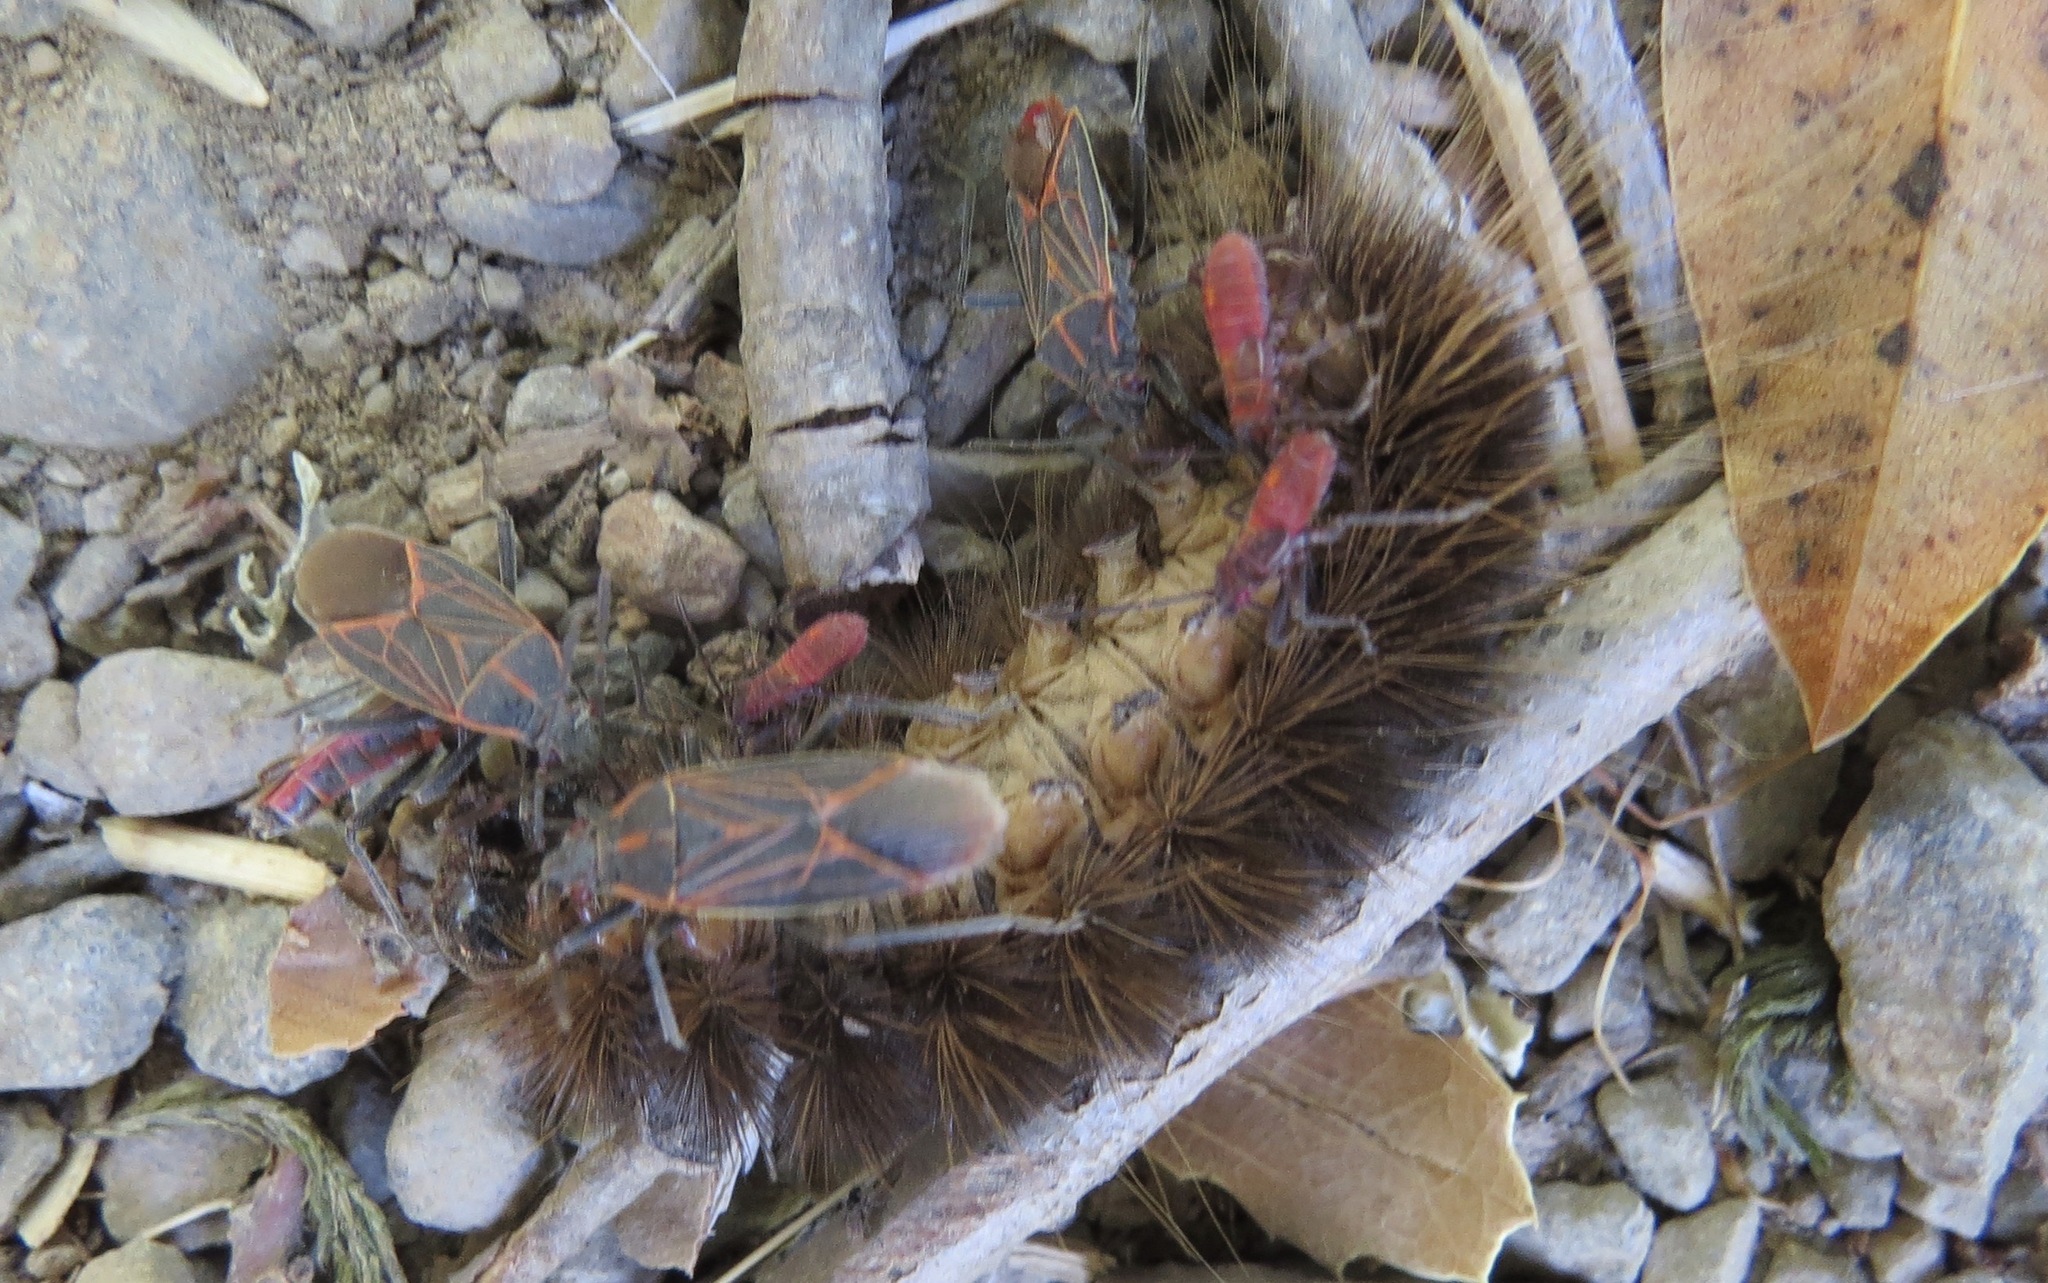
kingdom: Animalia
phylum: Arthropoda
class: Insecta
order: Hemiptera
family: Rhopalidae
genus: Boisea
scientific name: Boisea rubrolineata
